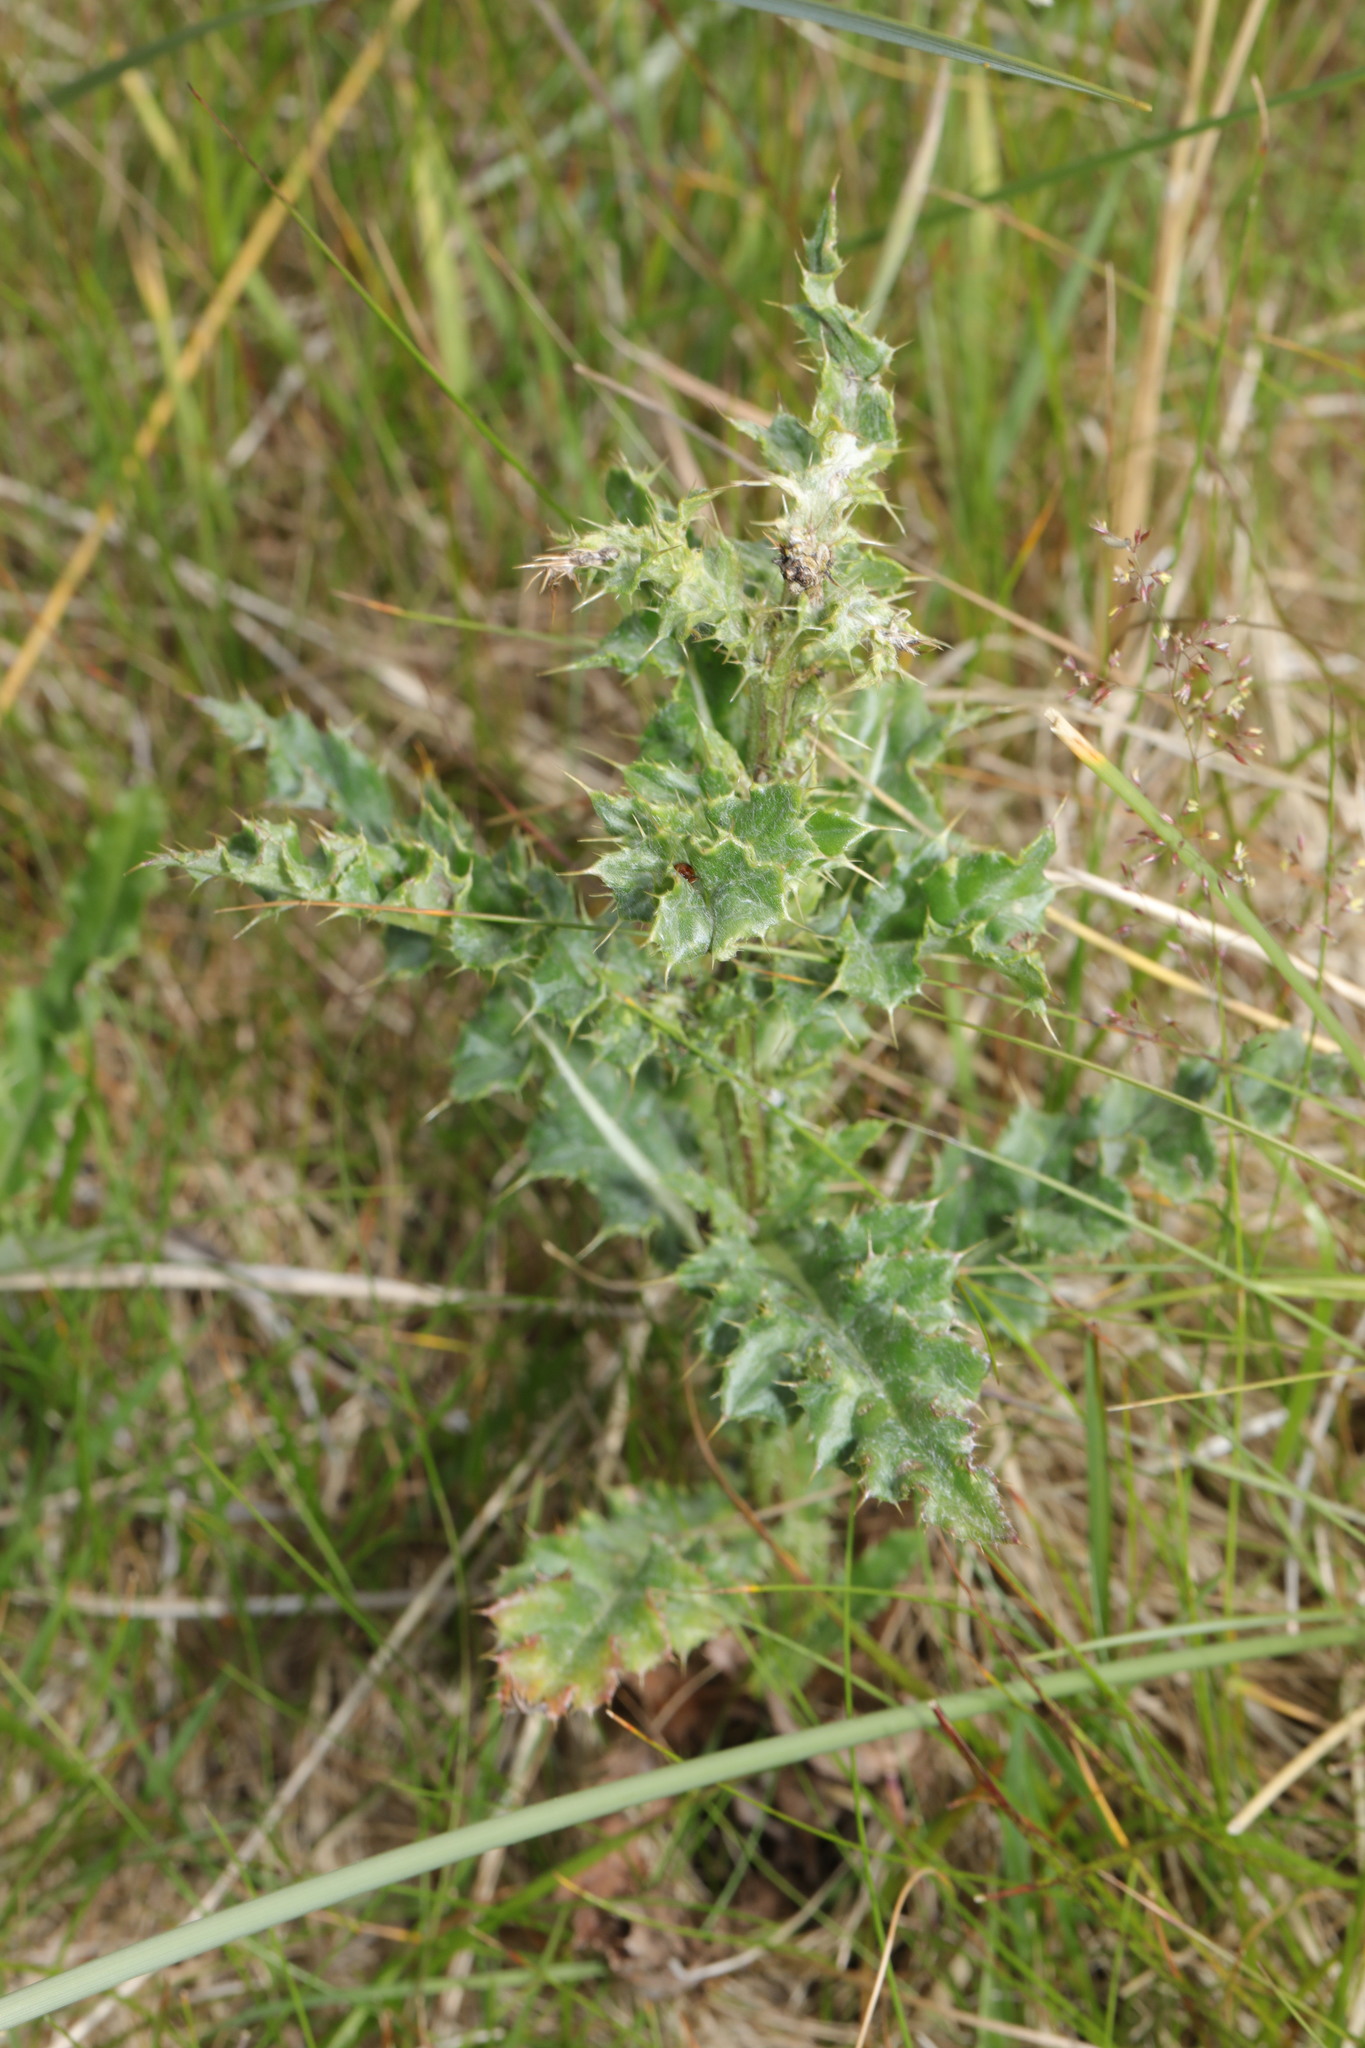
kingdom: Plantae
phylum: Tracheophyta
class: Magnoliopsida
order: Asterales
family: Asteraceae
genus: Cirsium
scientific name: Cirsium arvense
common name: Creeping thistle
